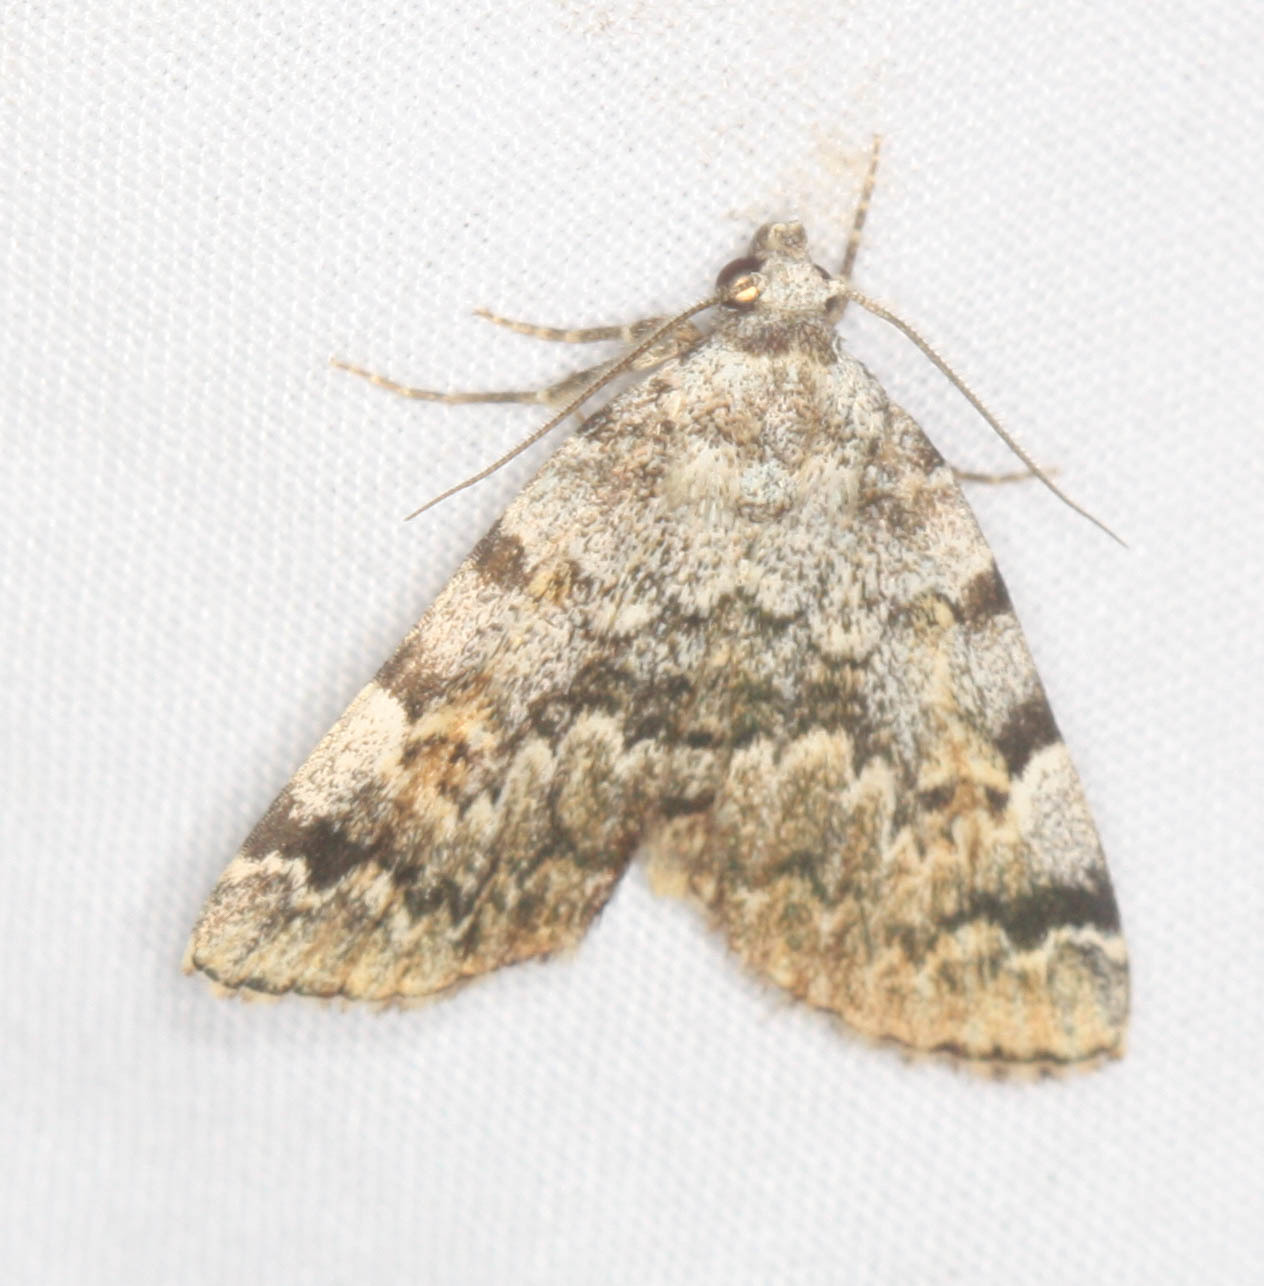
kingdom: Animalia
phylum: Arthropoda
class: Insecta
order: Lepidoptera
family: Erebidae
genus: Idia
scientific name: Idia americalis
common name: American idia moth
